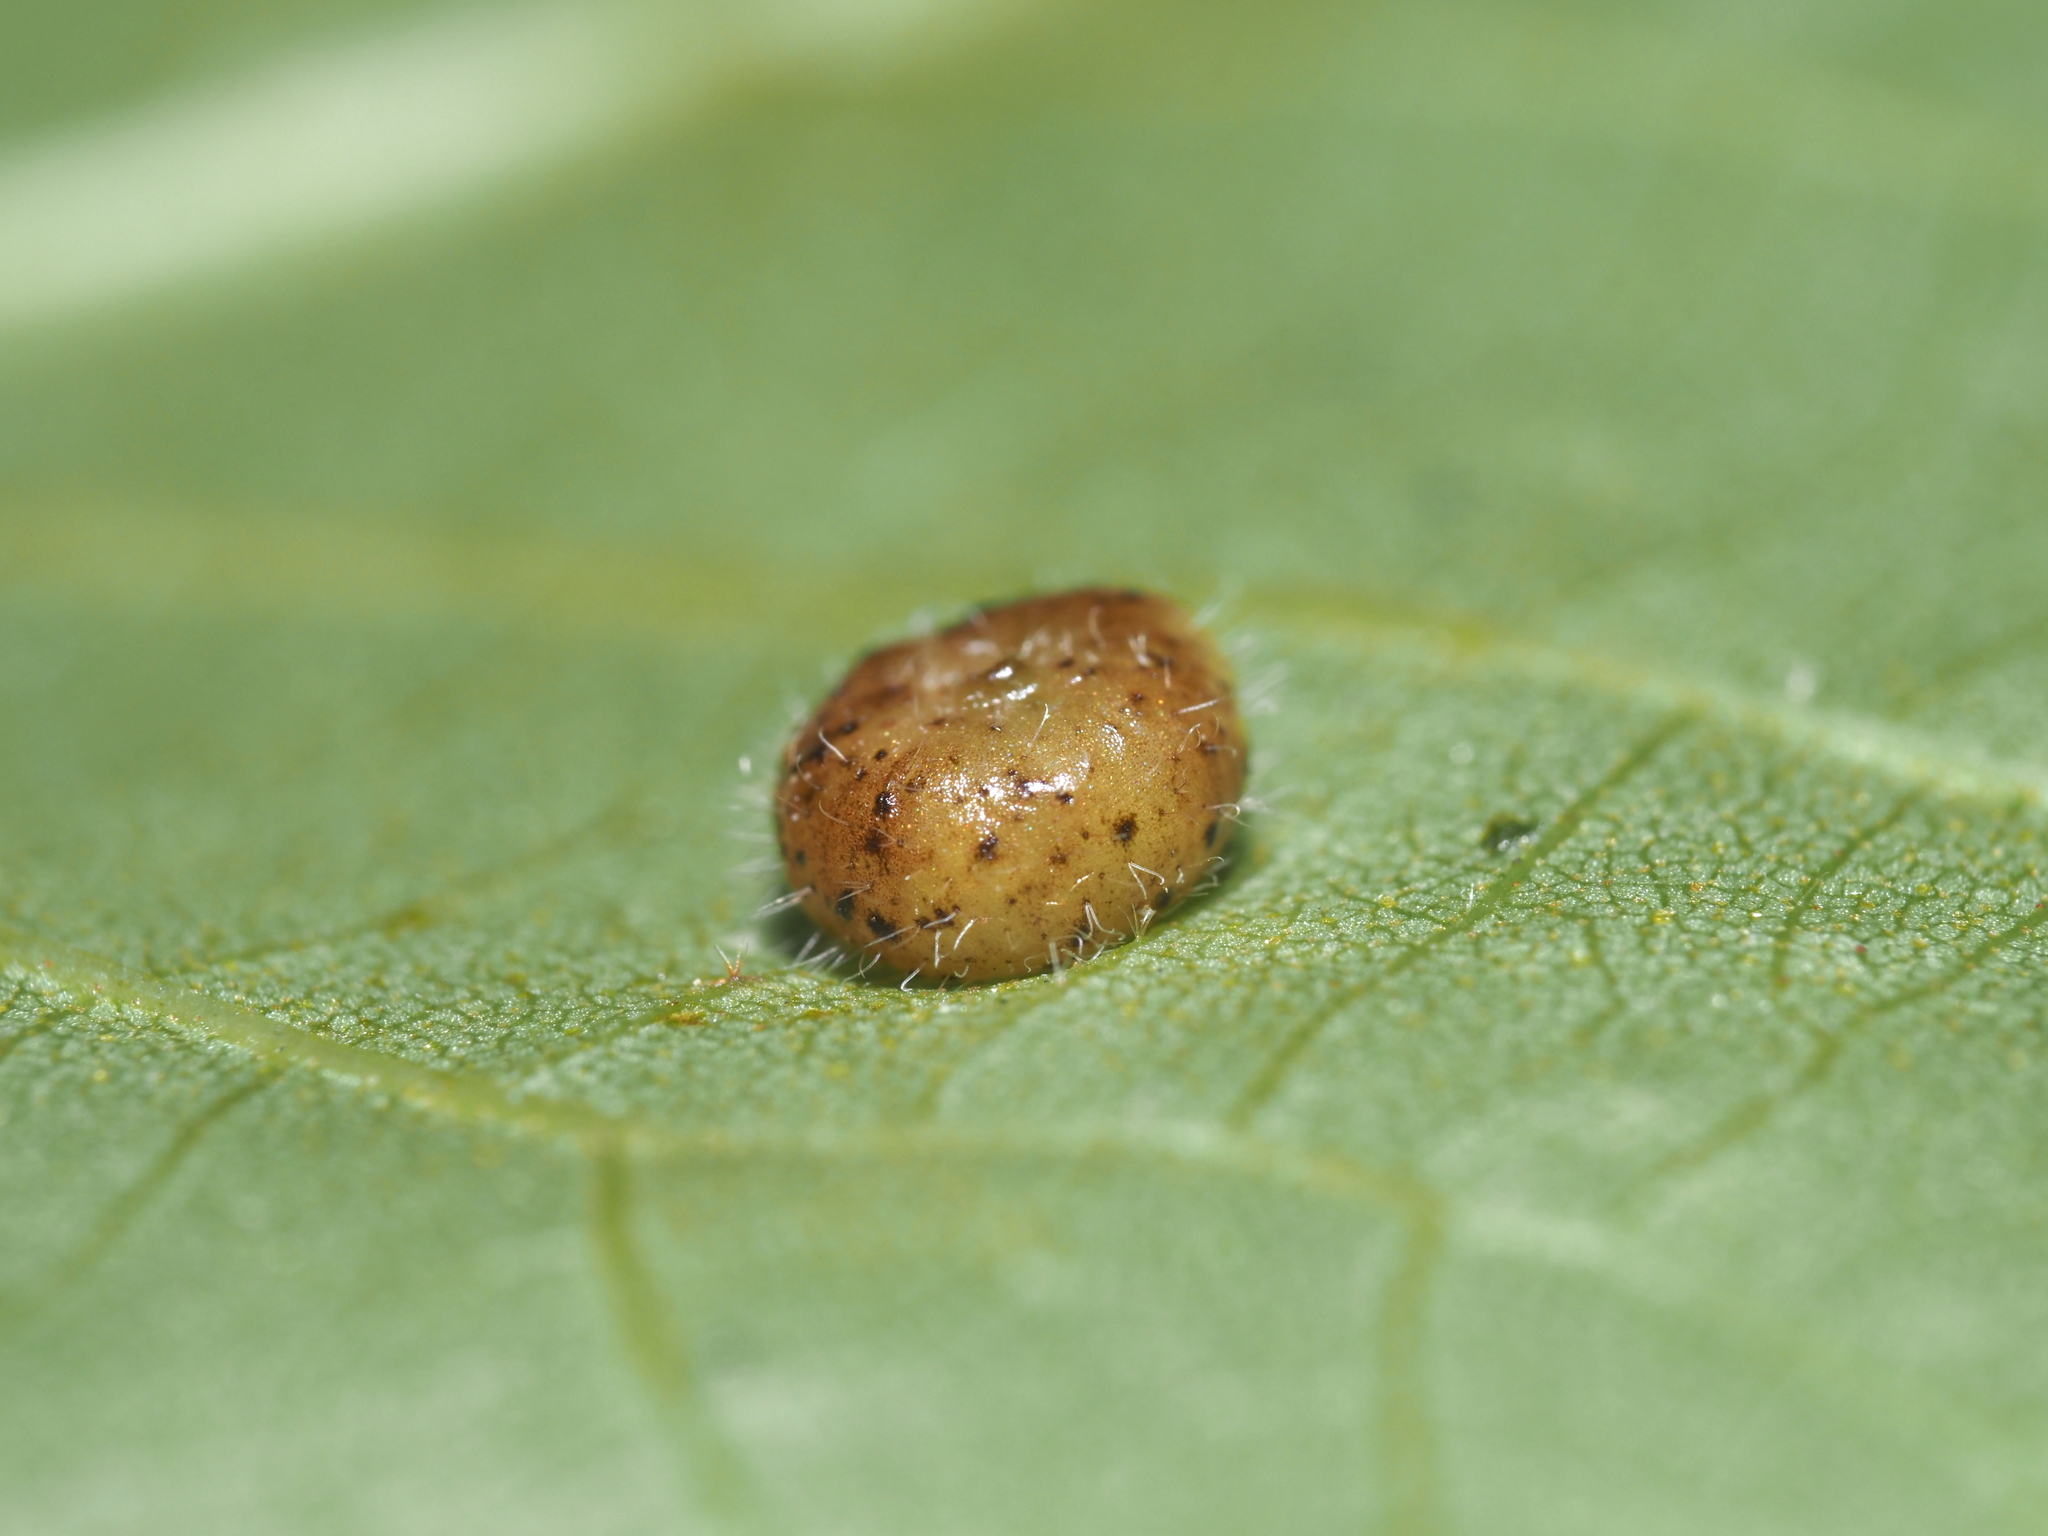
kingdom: Animalia
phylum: Arthropoda
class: Insecta
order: Diptera
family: Cecidomyiidae
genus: Caryomyia
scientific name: Caryomyia thompsoni
